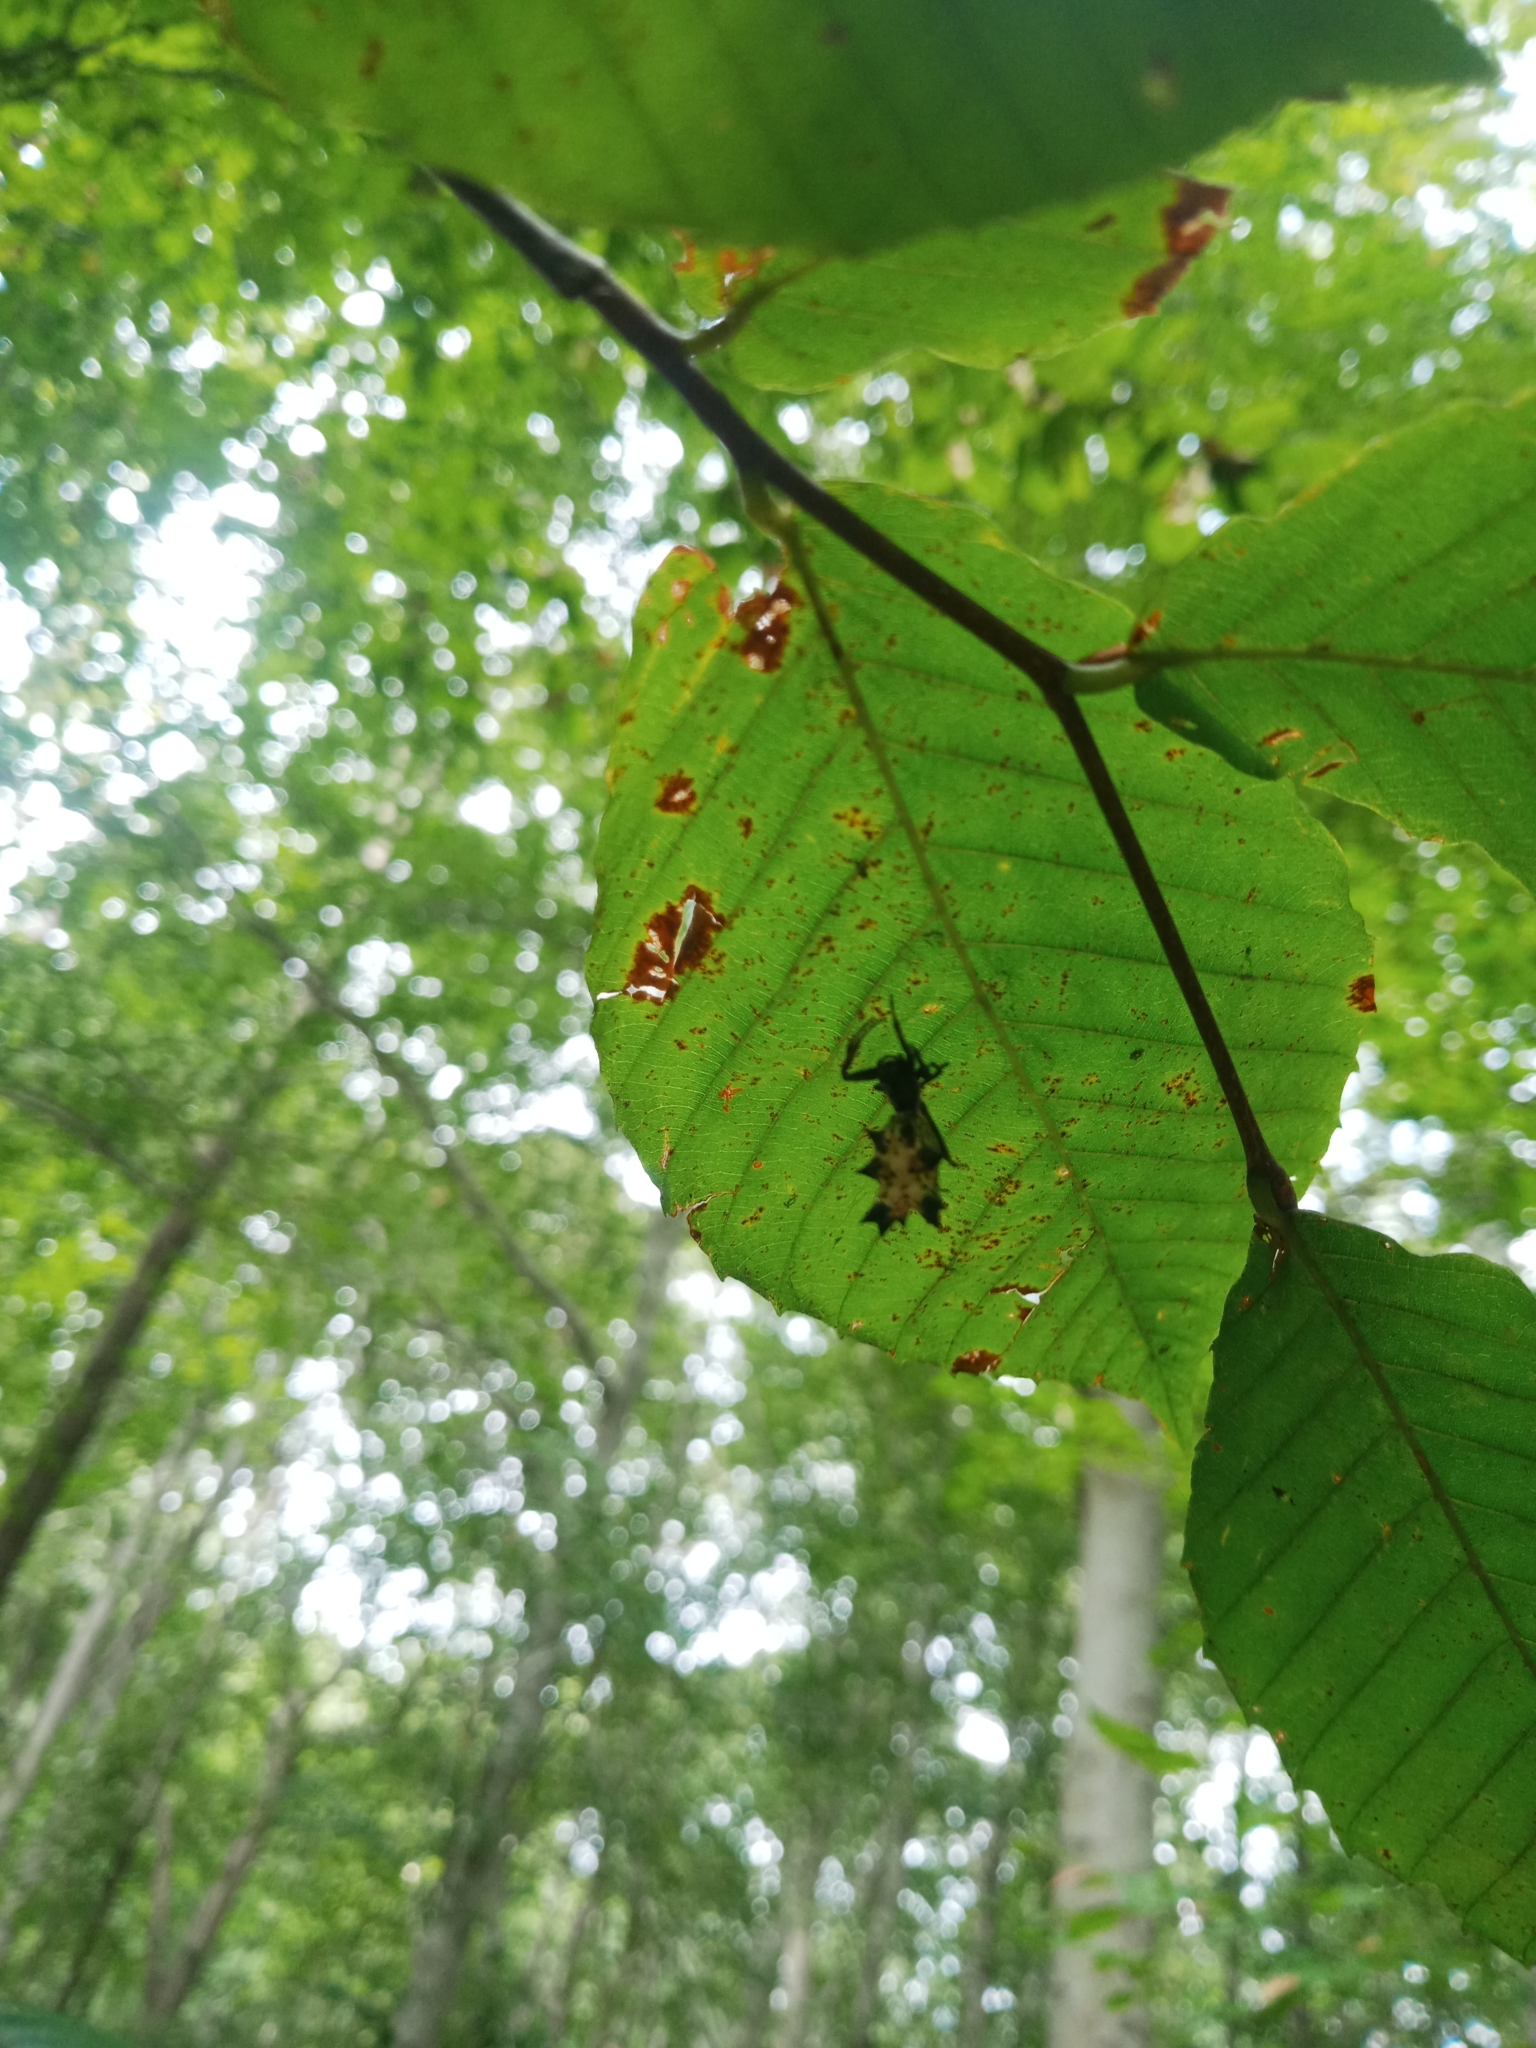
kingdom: Animalia
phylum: Arthropoda
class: Arachnida
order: Araneae
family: Araneidae
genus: Micrathena
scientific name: Micrathena gracilis
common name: Orb weavers
